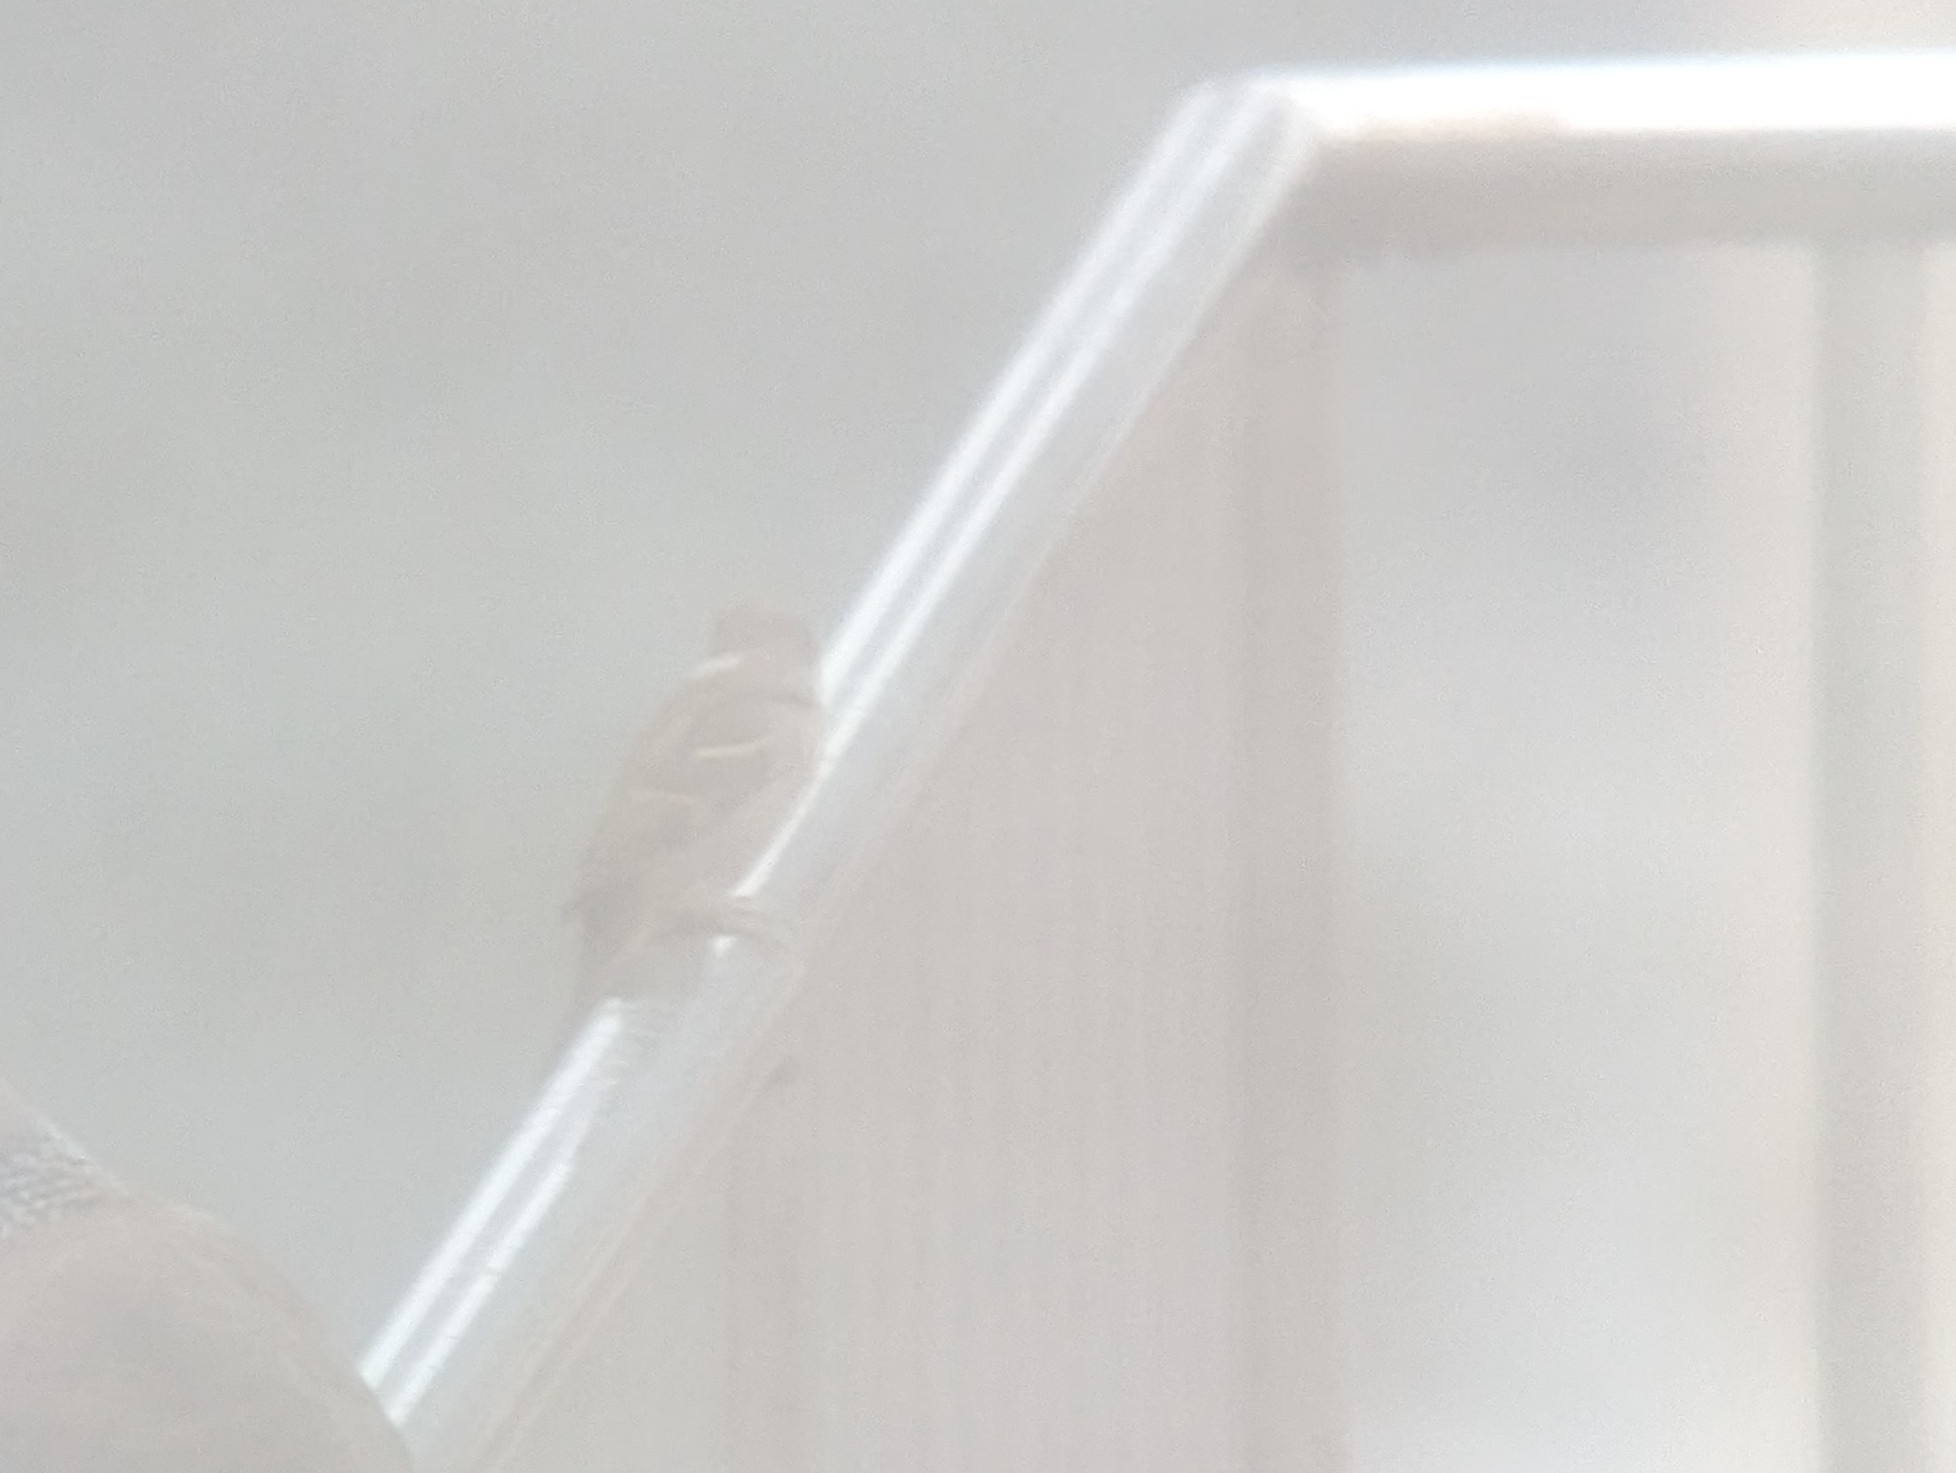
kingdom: Animalia
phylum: Chordata
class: Aves
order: Passeriformes
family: Passeridae
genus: Passer
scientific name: Passer montanus
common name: Eurasian tree sparrow
